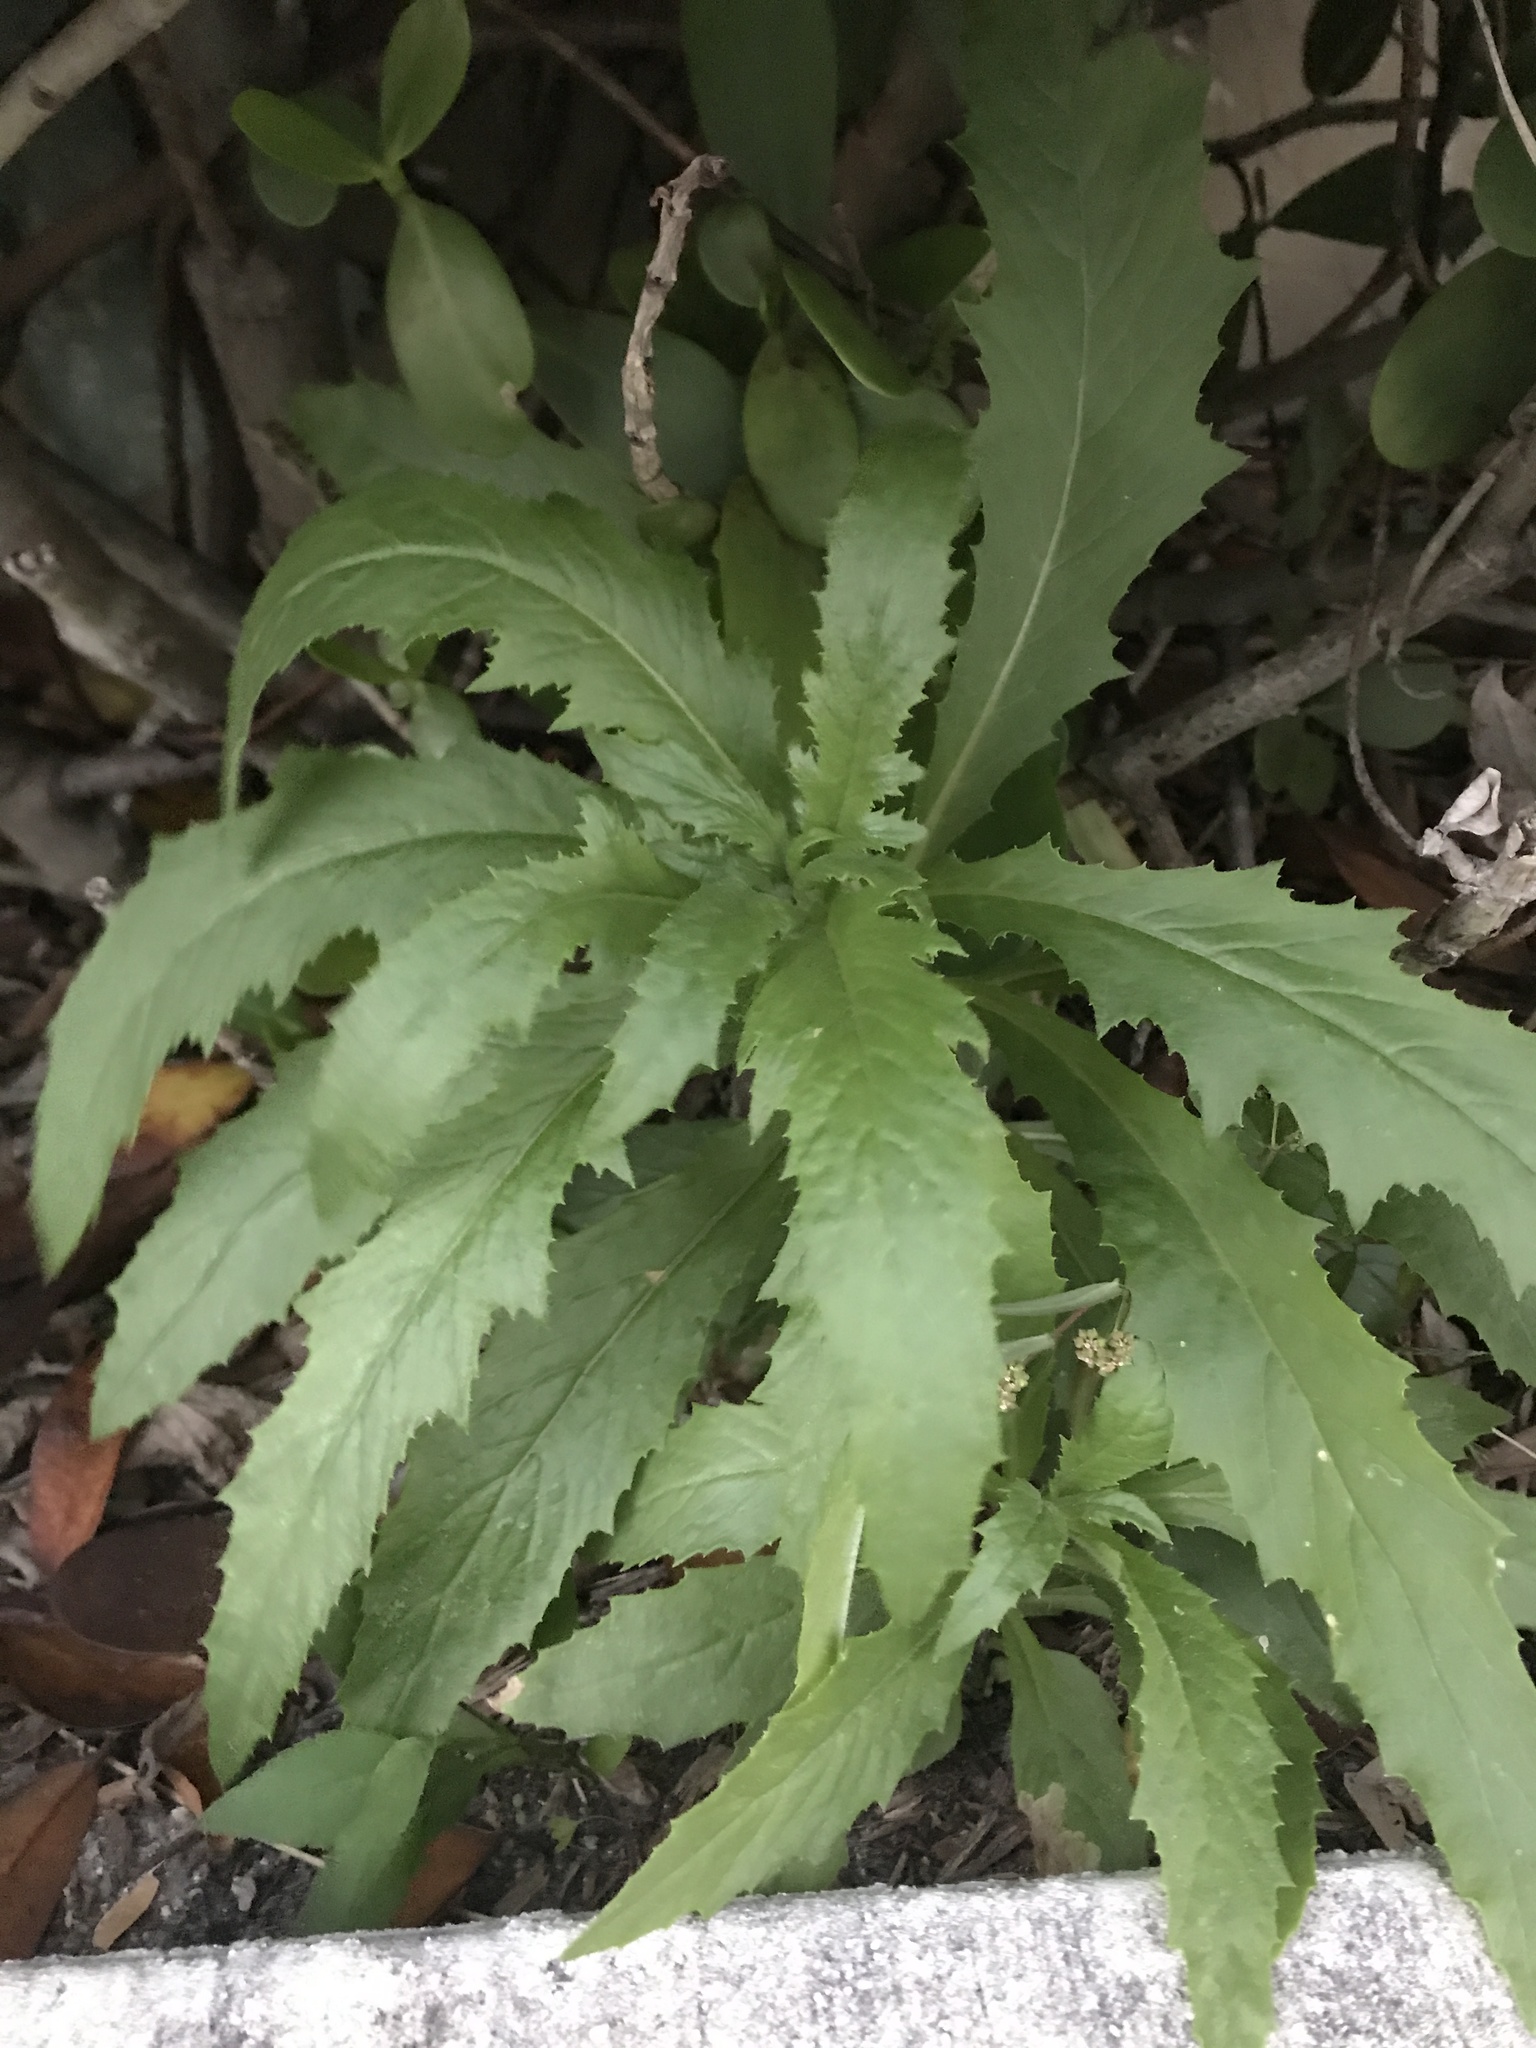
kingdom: Plantae
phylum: Tracheophyta
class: Magnoliopsida
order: Asterales
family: Asteraceae
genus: Erechtites
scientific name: Erechtites hieraciifolius
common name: American burnweed
